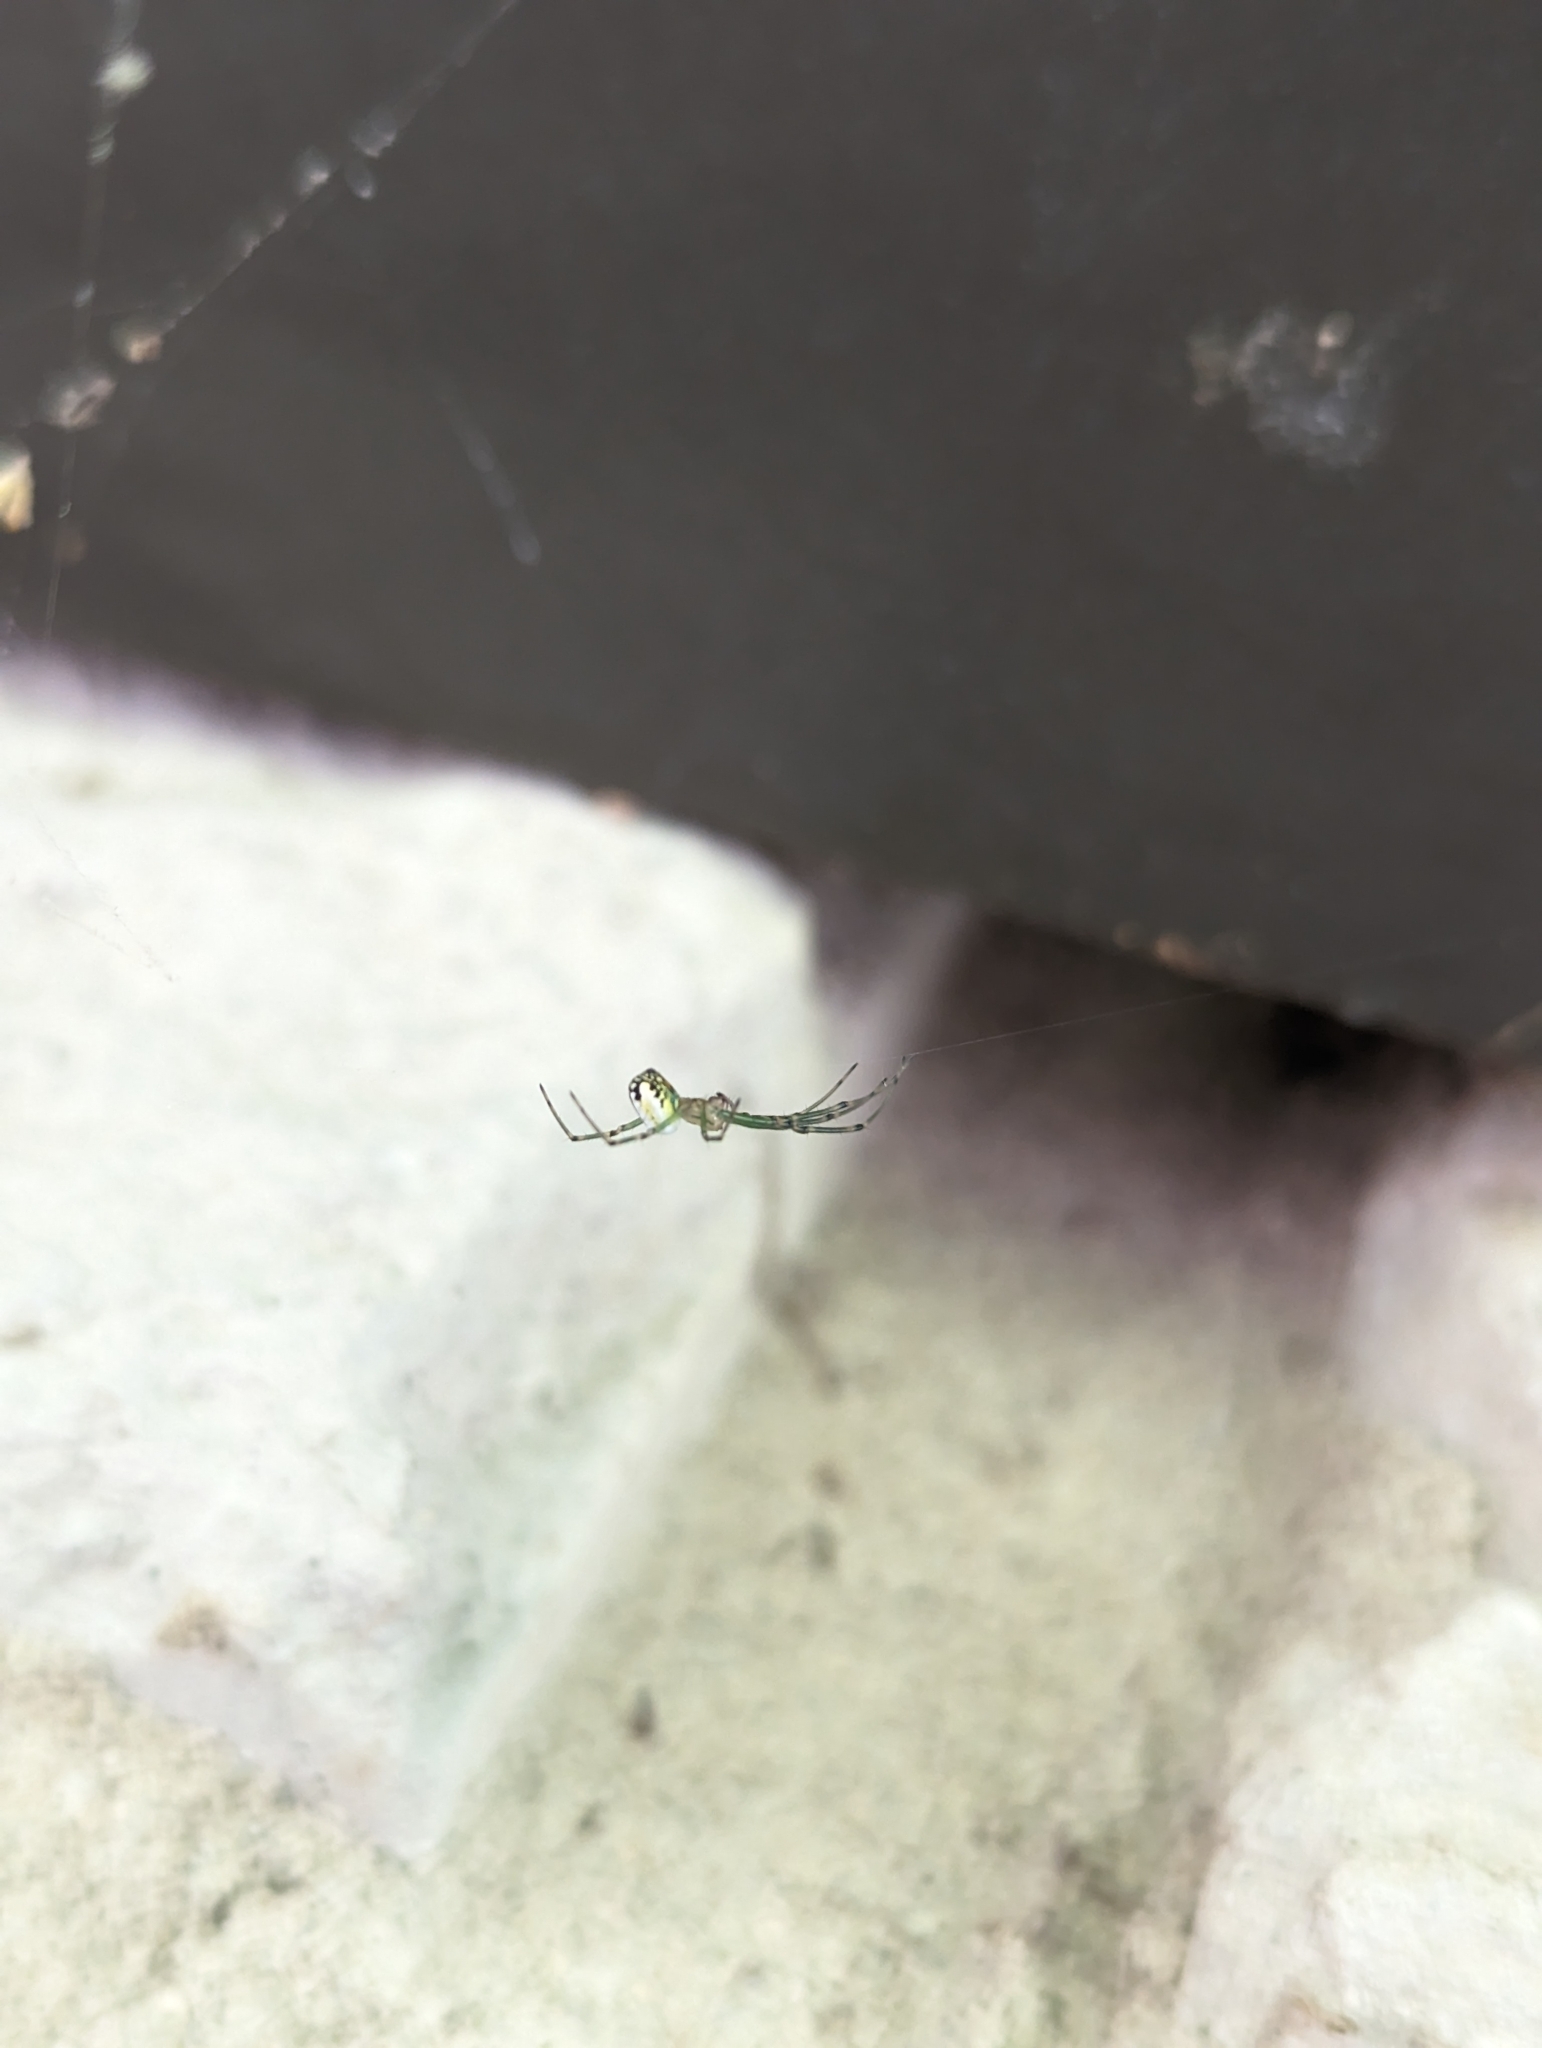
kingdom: Animalia
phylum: Arthropoda
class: Arachnida
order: Araneae
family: Tetragnathidae
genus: Leucauge
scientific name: Leucauge venusta
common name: Longjawed orb weavers
